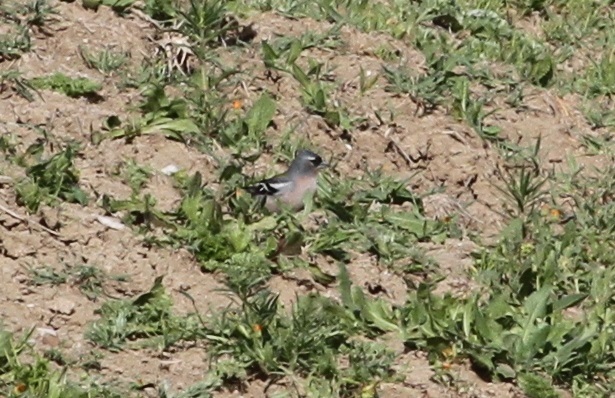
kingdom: Animalia
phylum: Chordata
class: Aves
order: Passeriformes
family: Fringillidae
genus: Fringilla
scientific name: Fringilla spodiogenys
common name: African chaffinch
